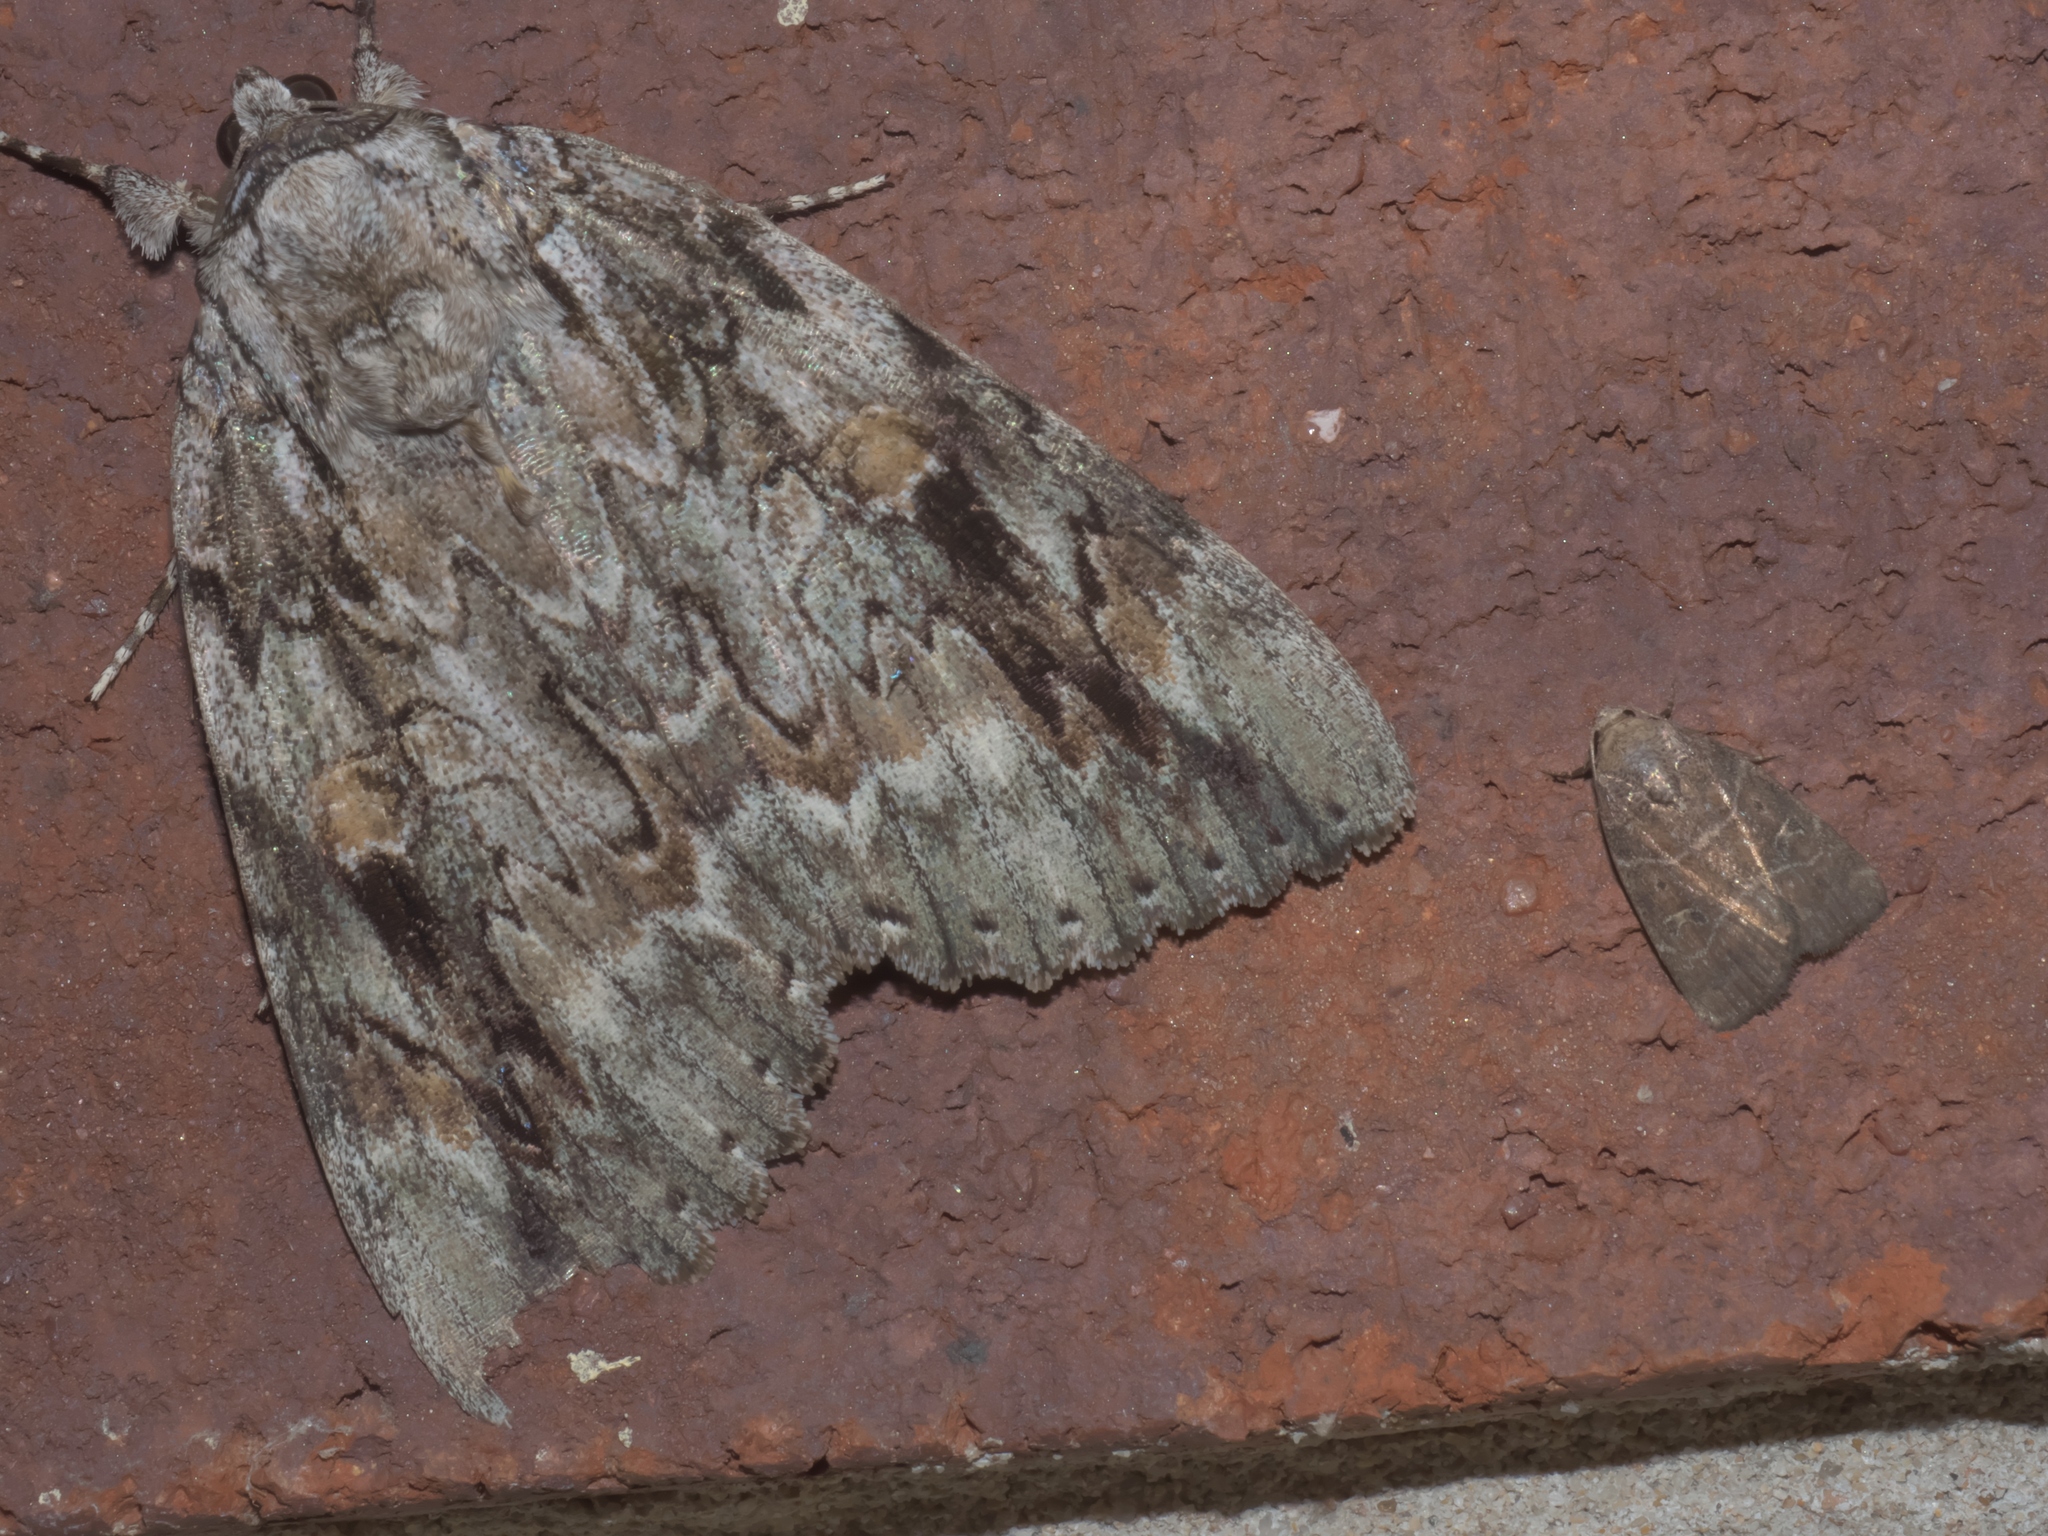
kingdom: Animalia
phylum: Arthropoda
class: Insecta
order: Lepidoptera
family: Erebidae
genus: Catocala
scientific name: Catocala maestosa
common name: Sad underwing
